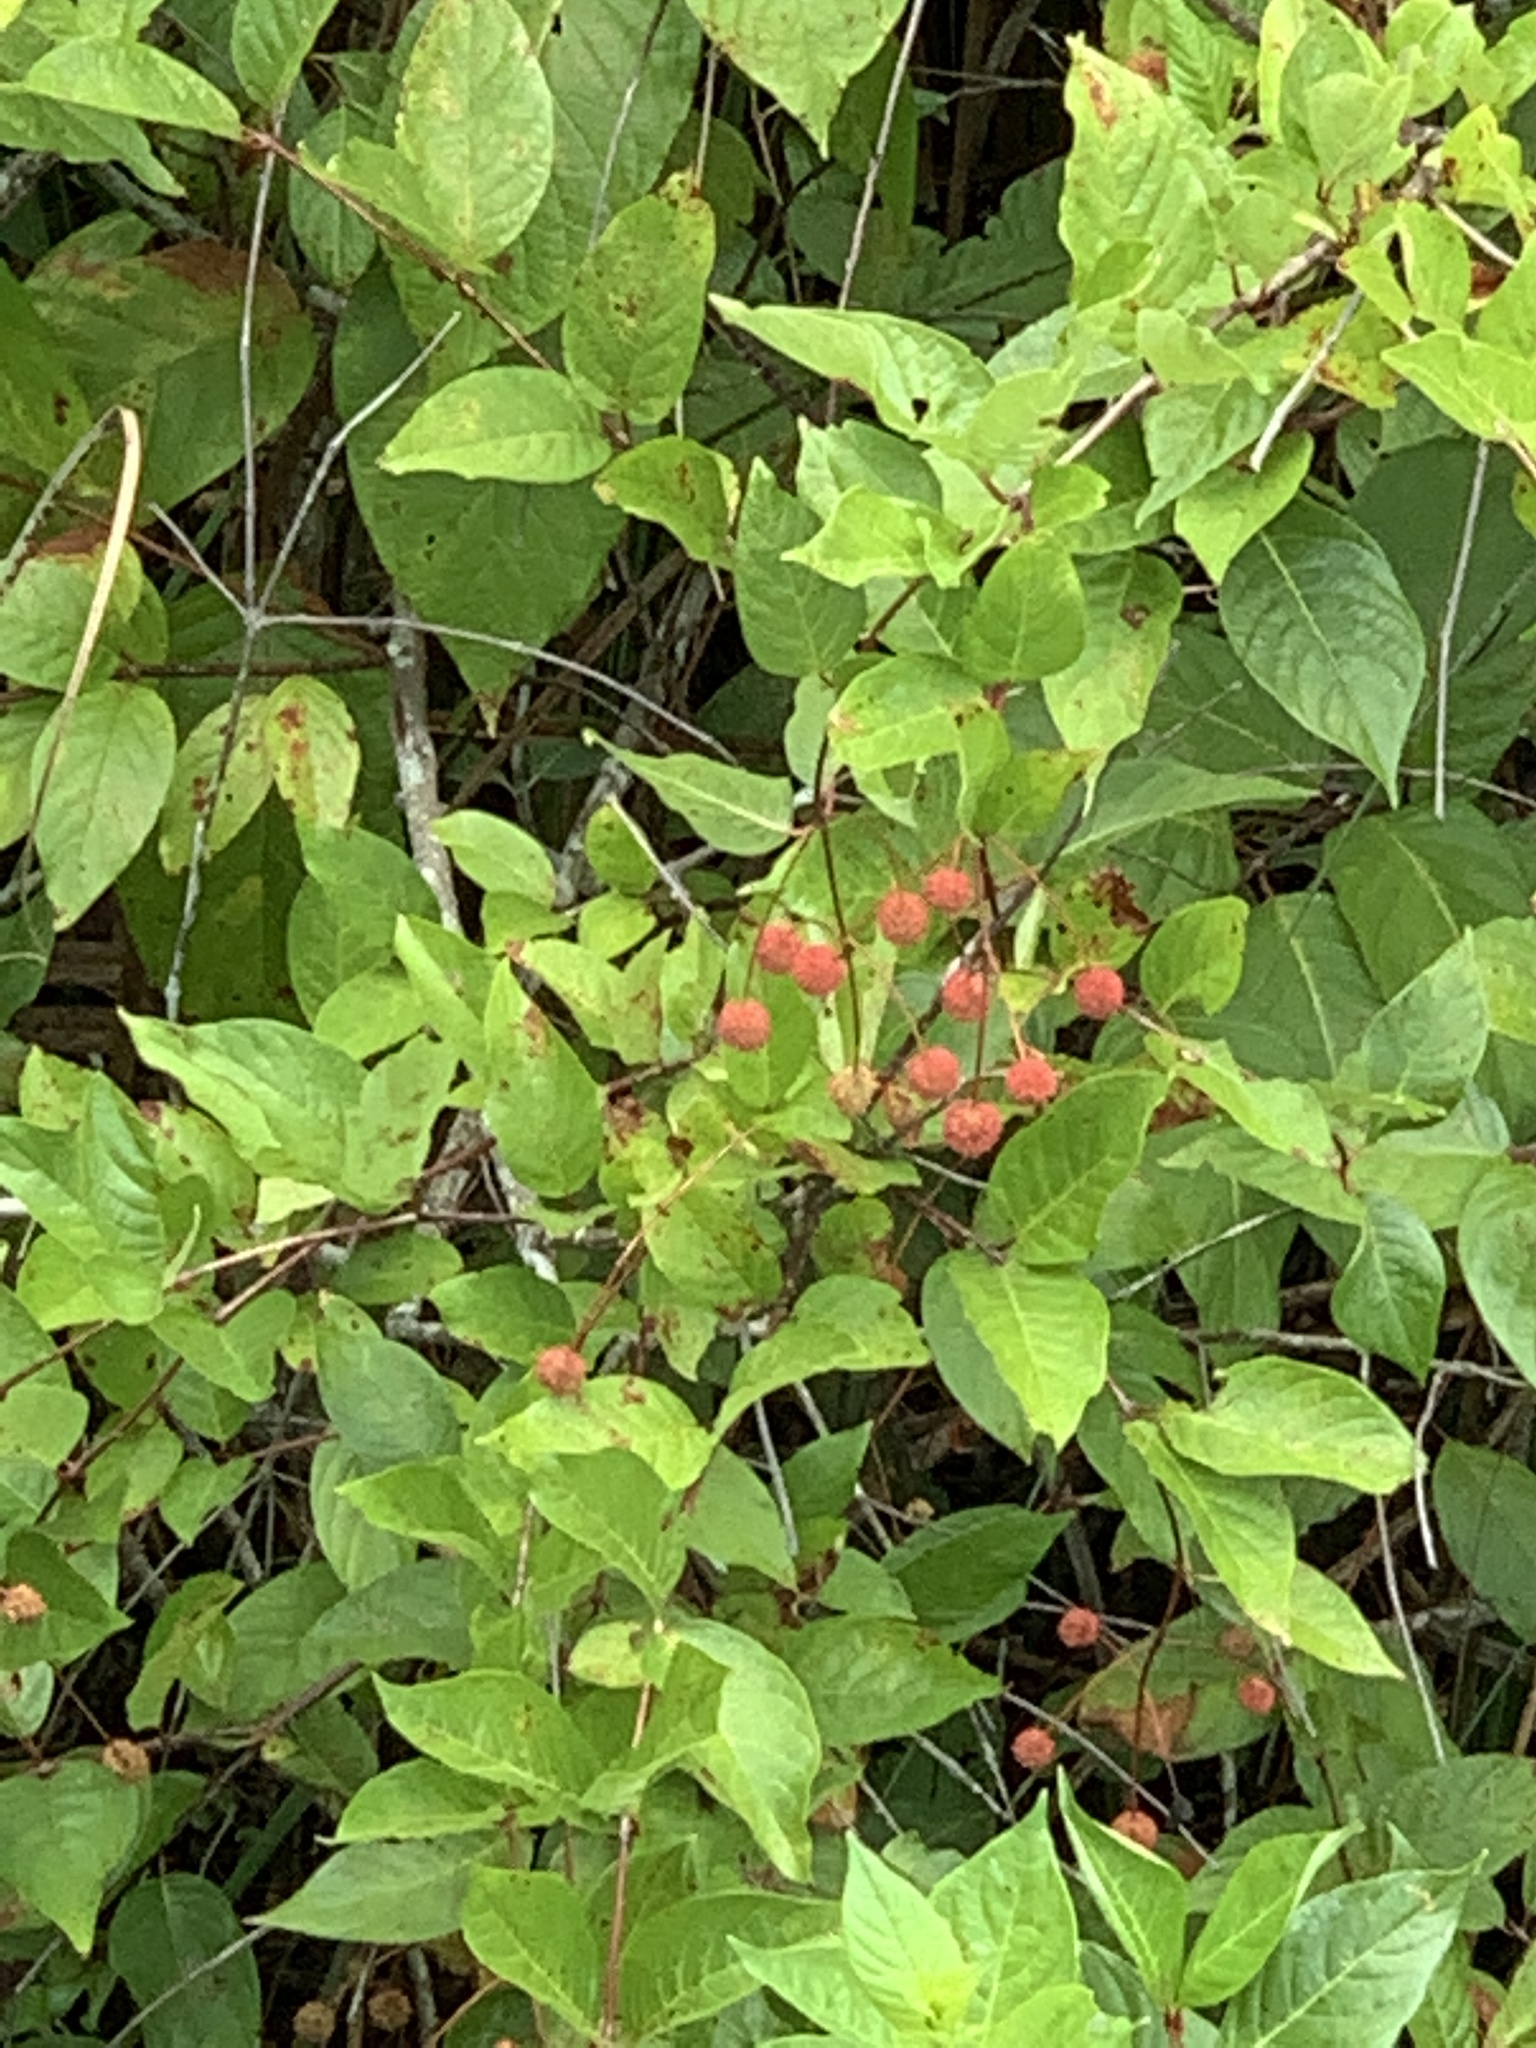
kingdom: Plantae
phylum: Tracheophyta
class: Magnoliopsida
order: Gentianales
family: Rubiaceae
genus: Cephalanthus
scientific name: Cephalanthus occidentalis
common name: Button-willow
